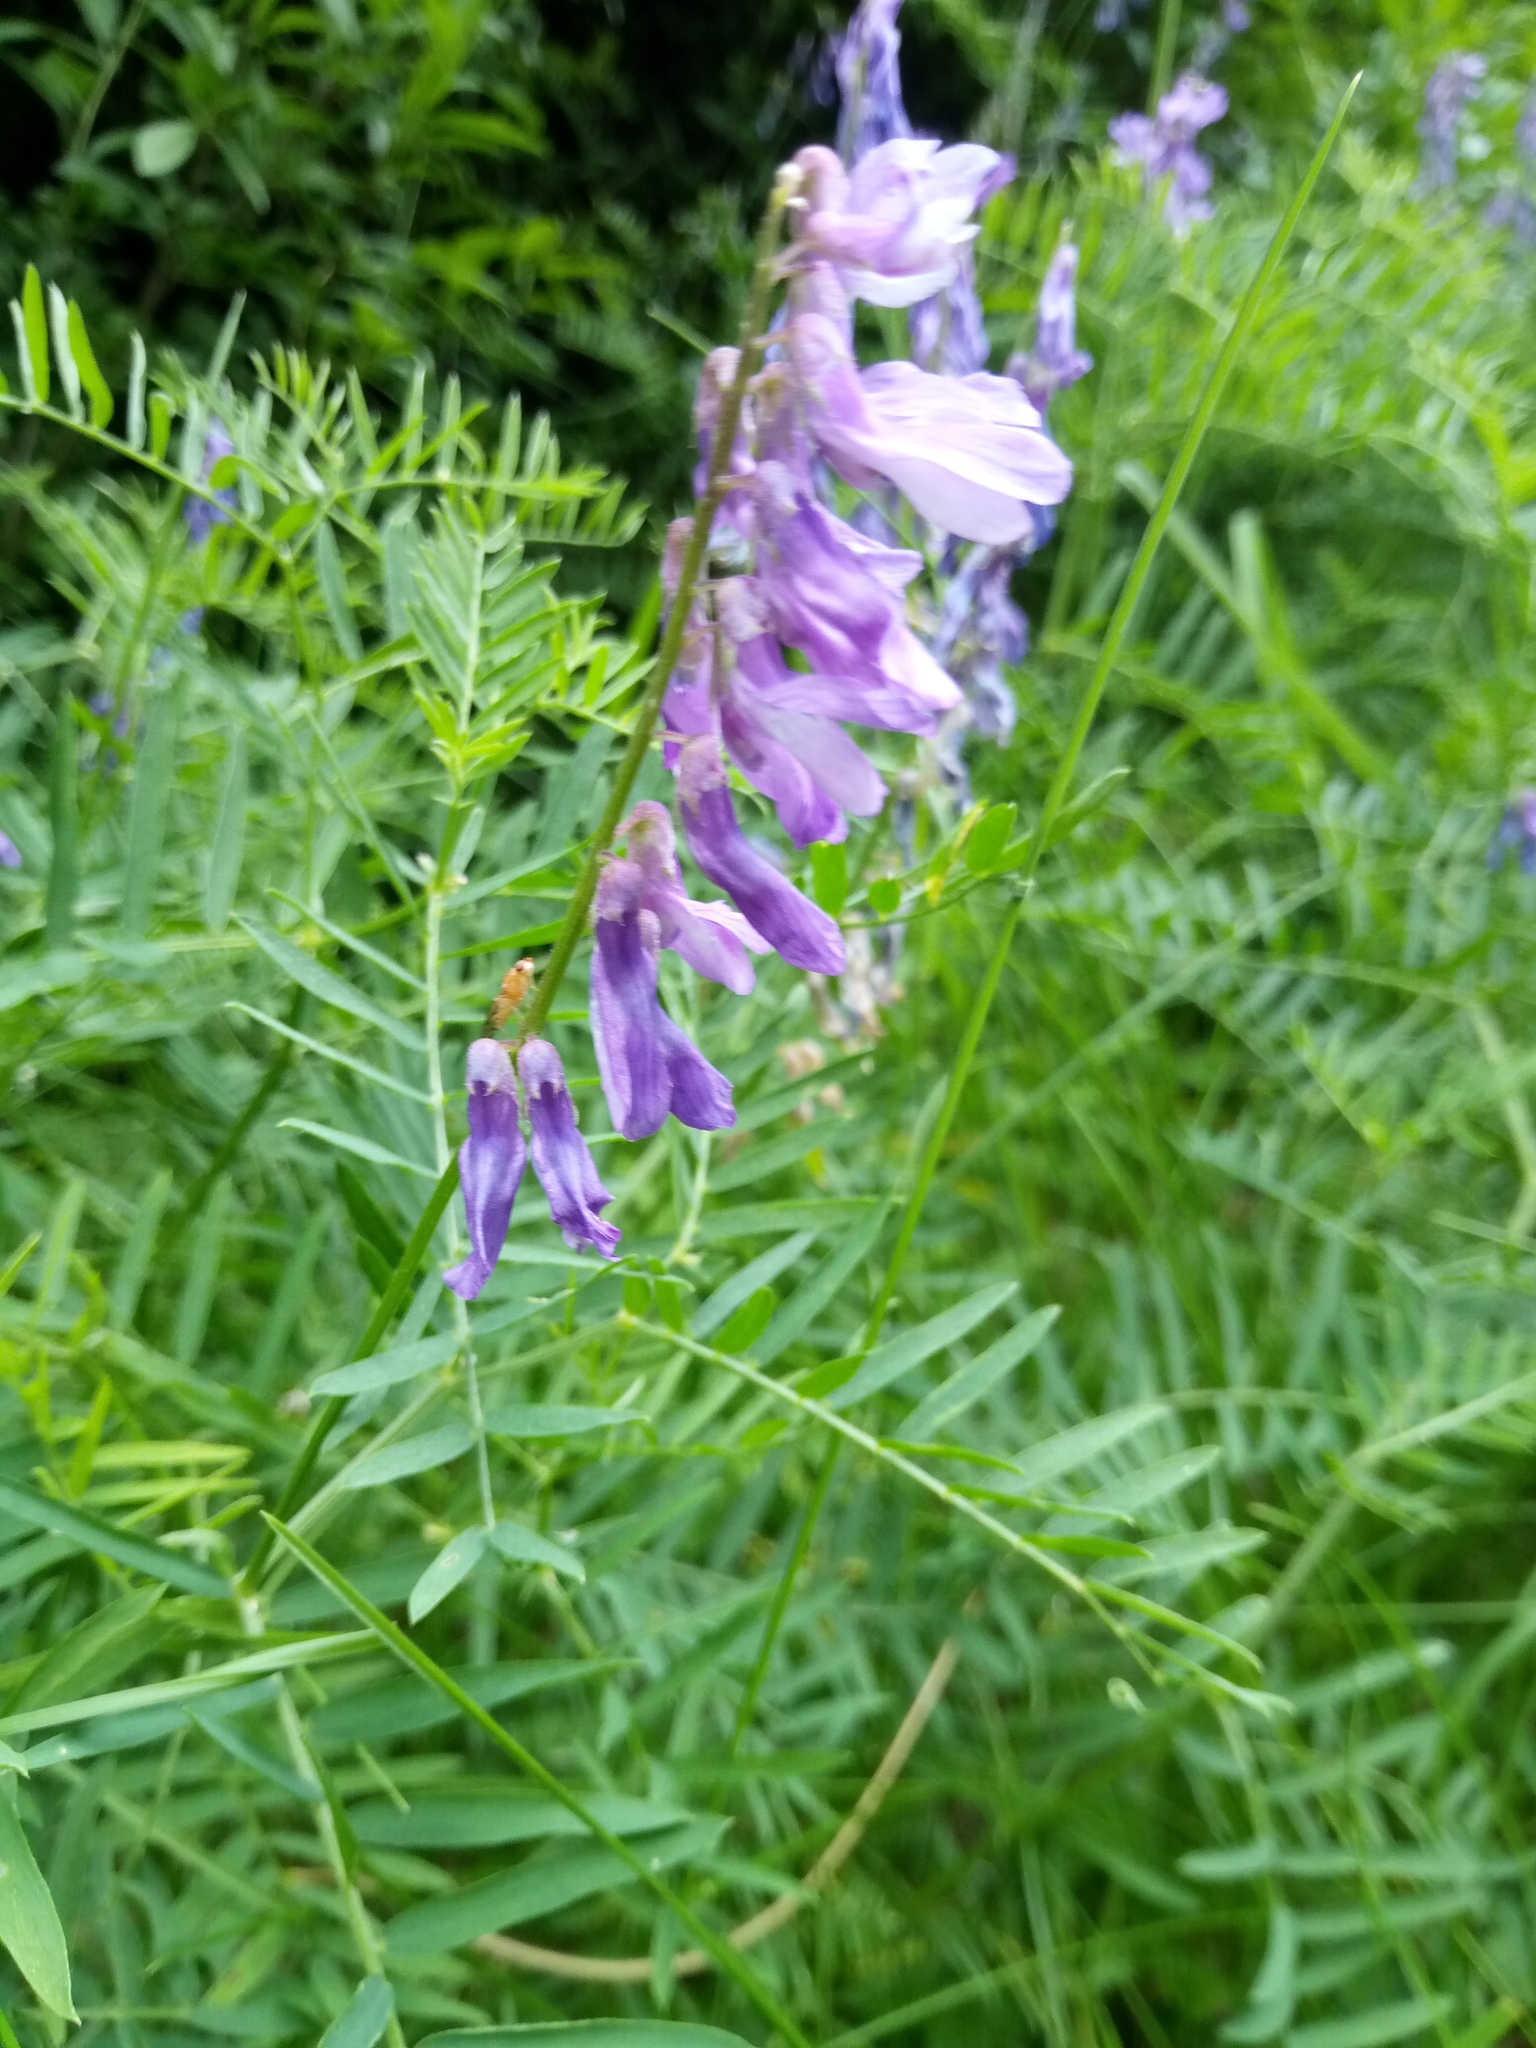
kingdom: Plantae
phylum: Tracheophyta
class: Magnoliopsida
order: Fabales
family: Fabaceae
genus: Vicia
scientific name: Vicia tenuifolia
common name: Fine-leaved vetch
